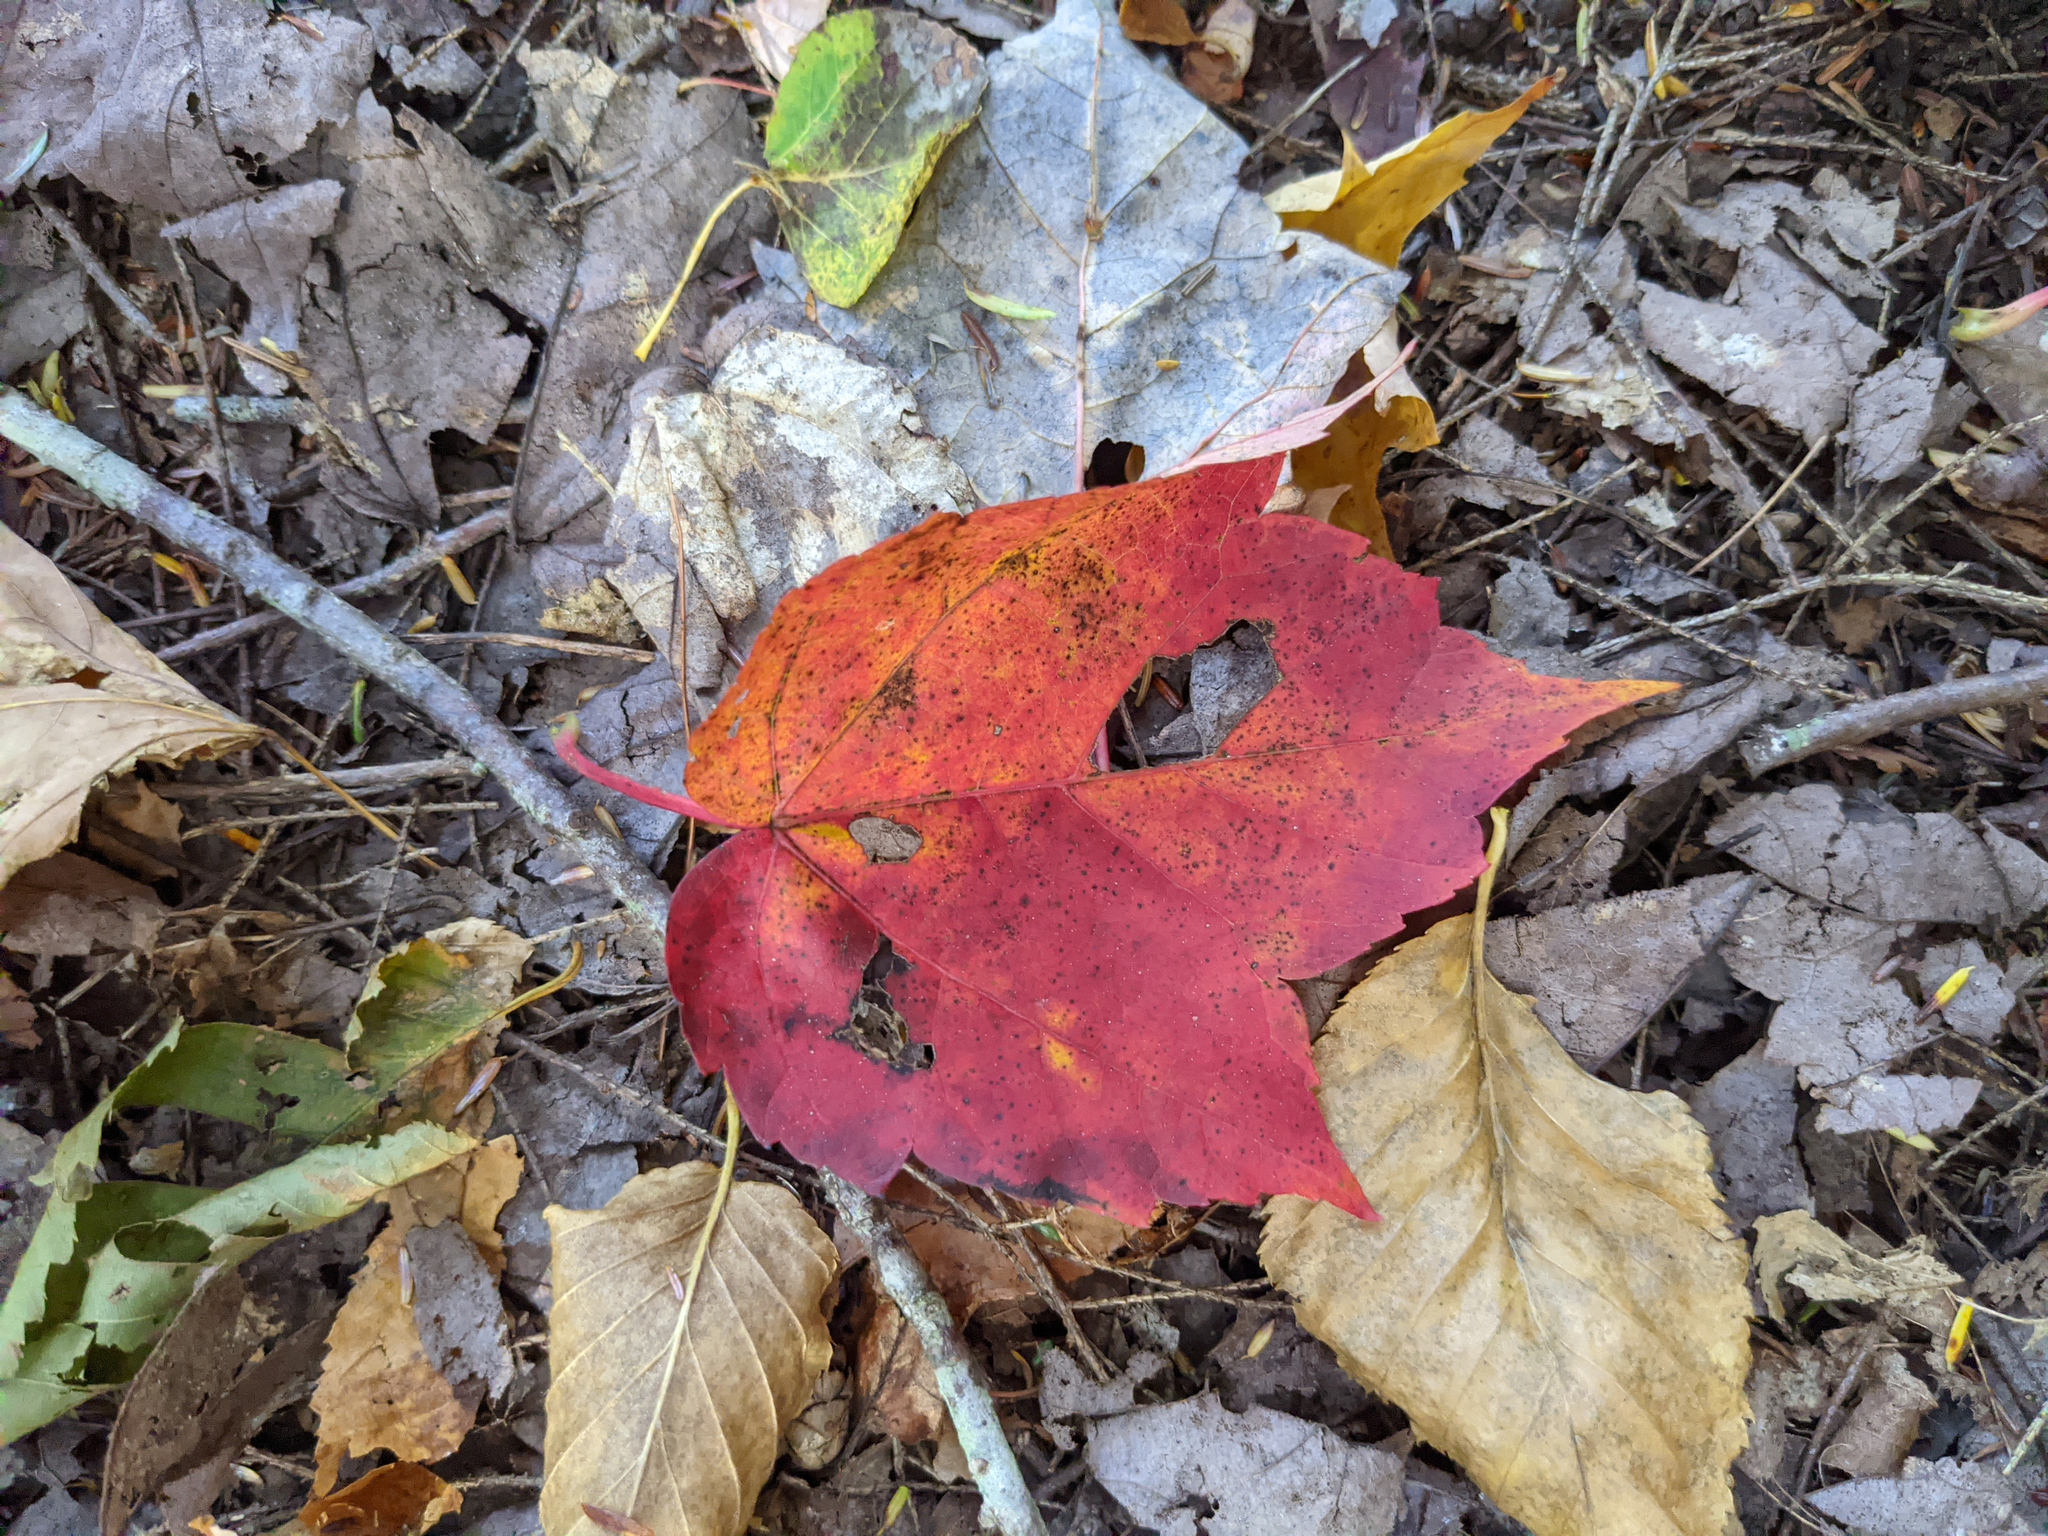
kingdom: Plantae
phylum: Tracheophyta
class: Magnoliopsida
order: Sapindales
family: Sapindaceae
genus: Acer
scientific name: Acer rubrum
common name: Red maple
